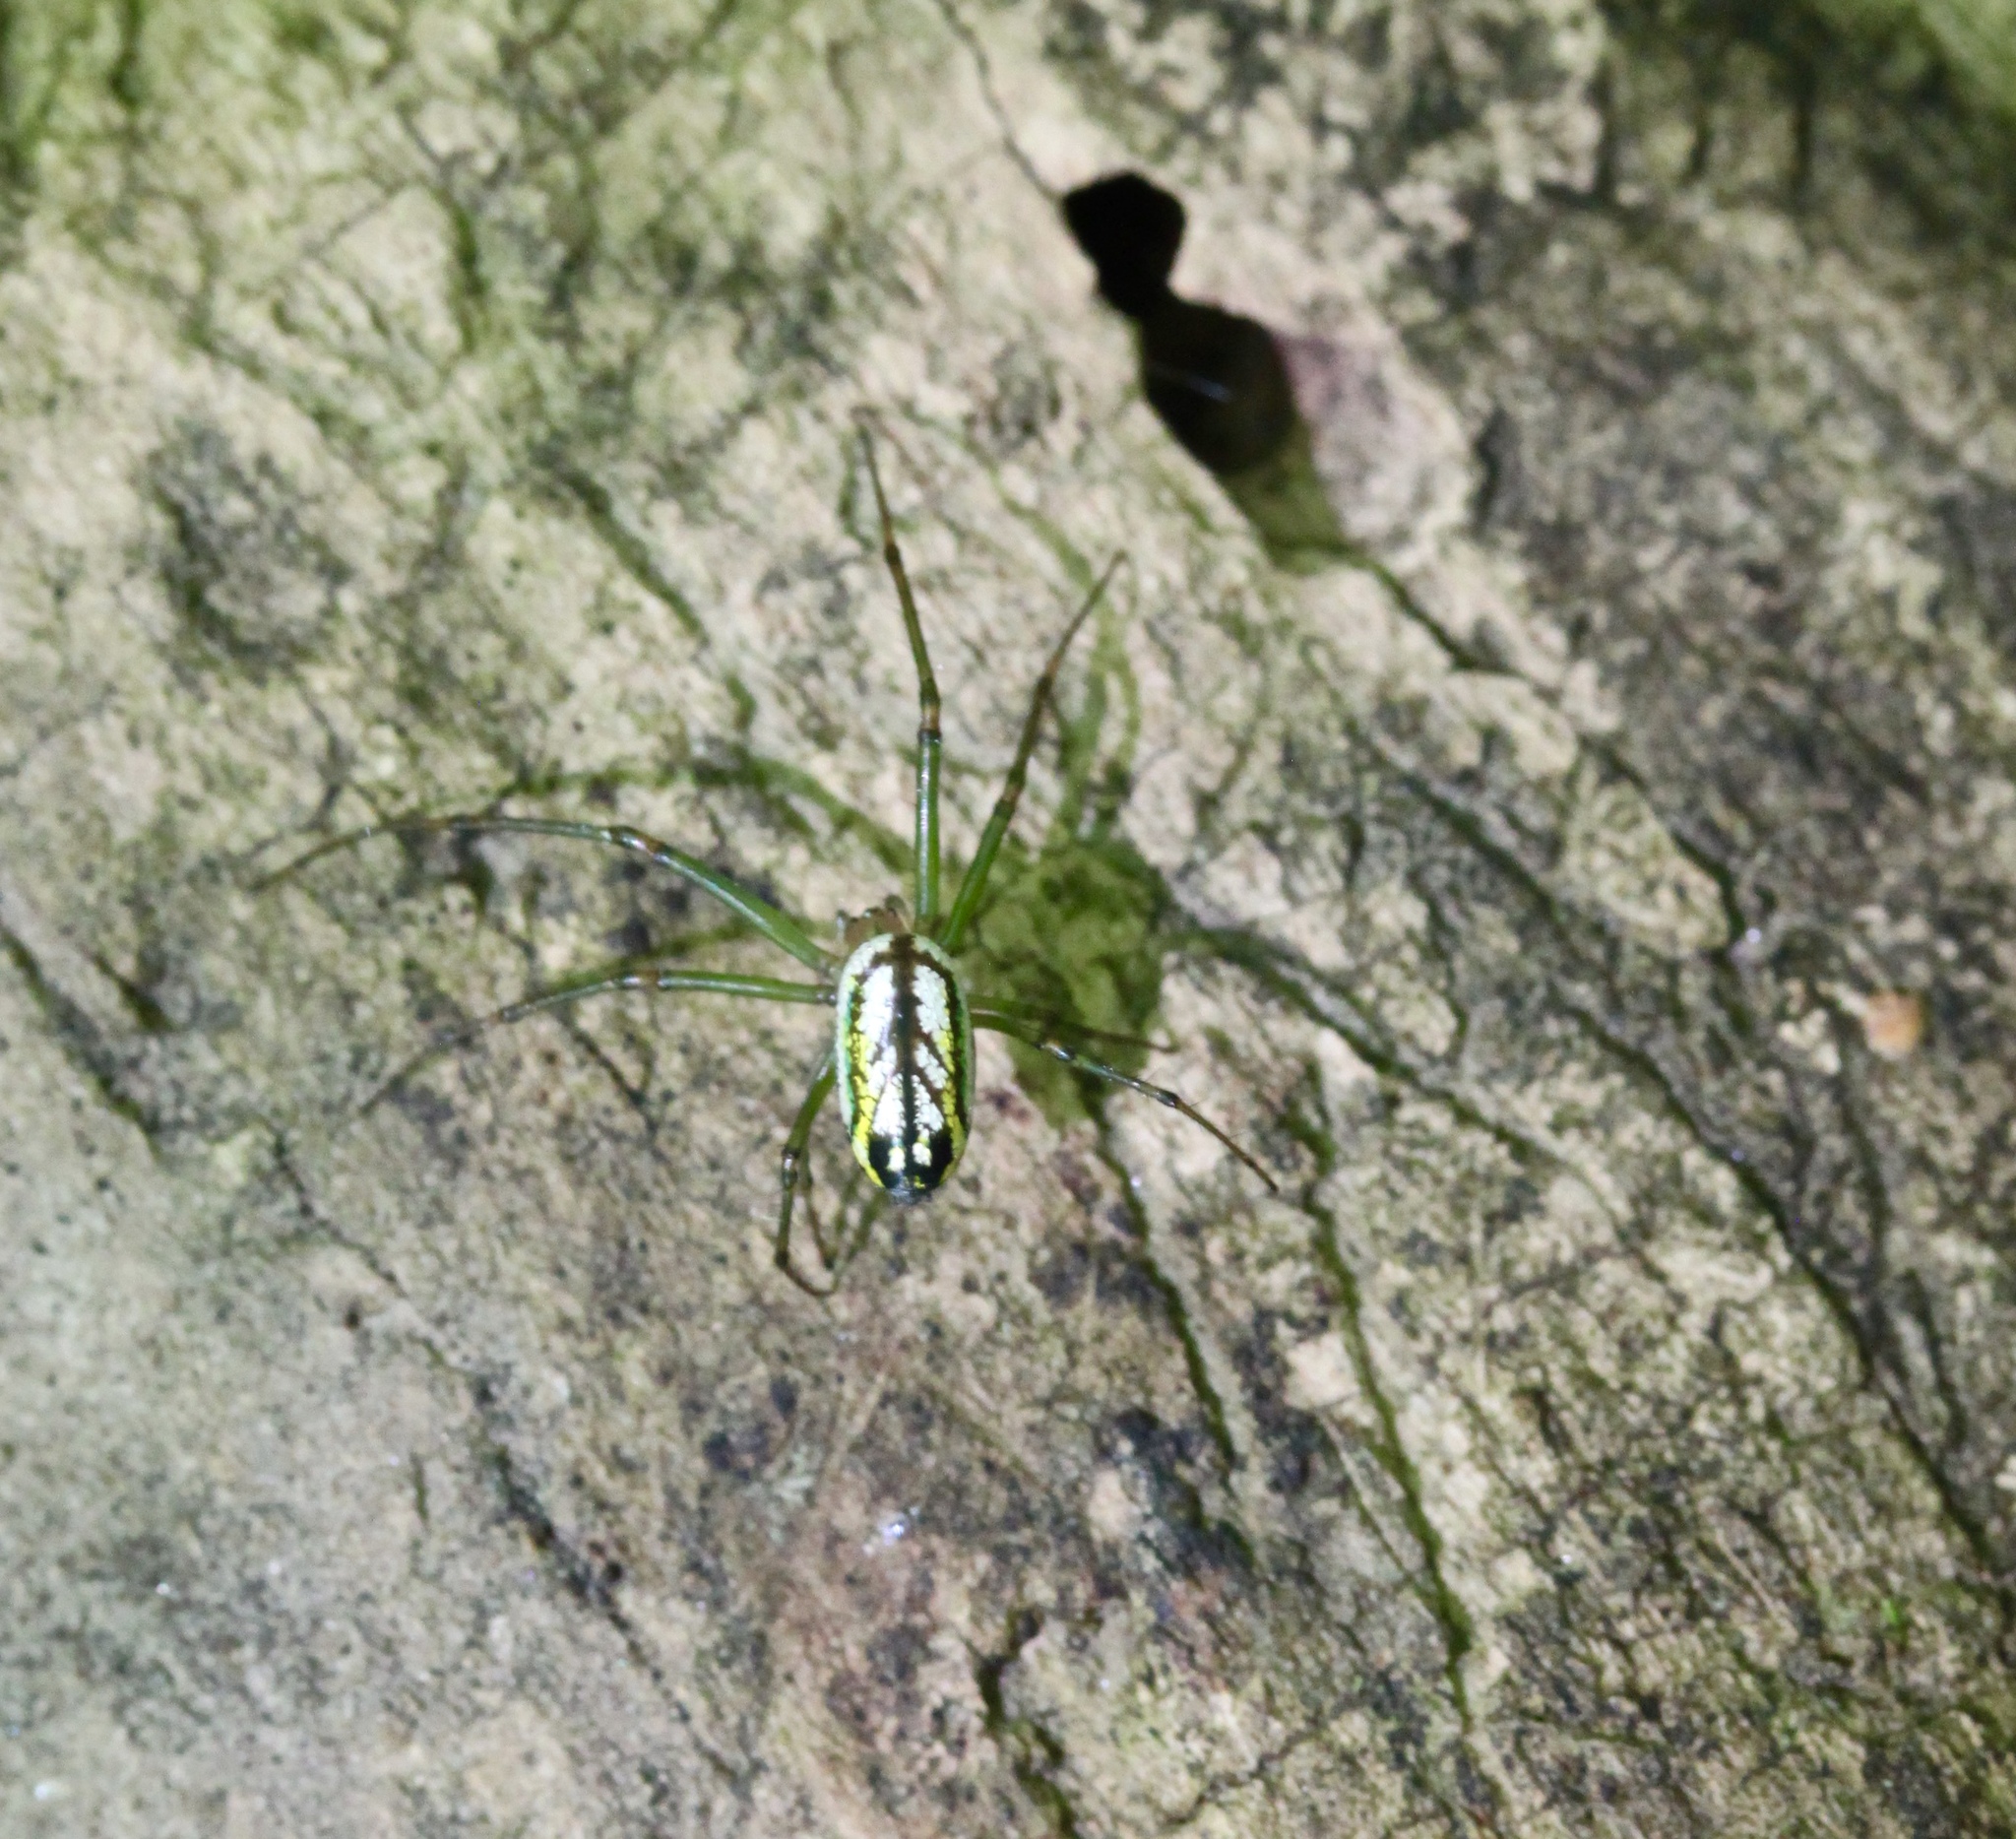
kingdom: Animalia
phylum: Arthropoda
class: Arachnida
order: Araneae
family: Tetragnathidae
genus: Leucauge
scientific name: Leucauge venusta
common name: Longjawed orb weavers
